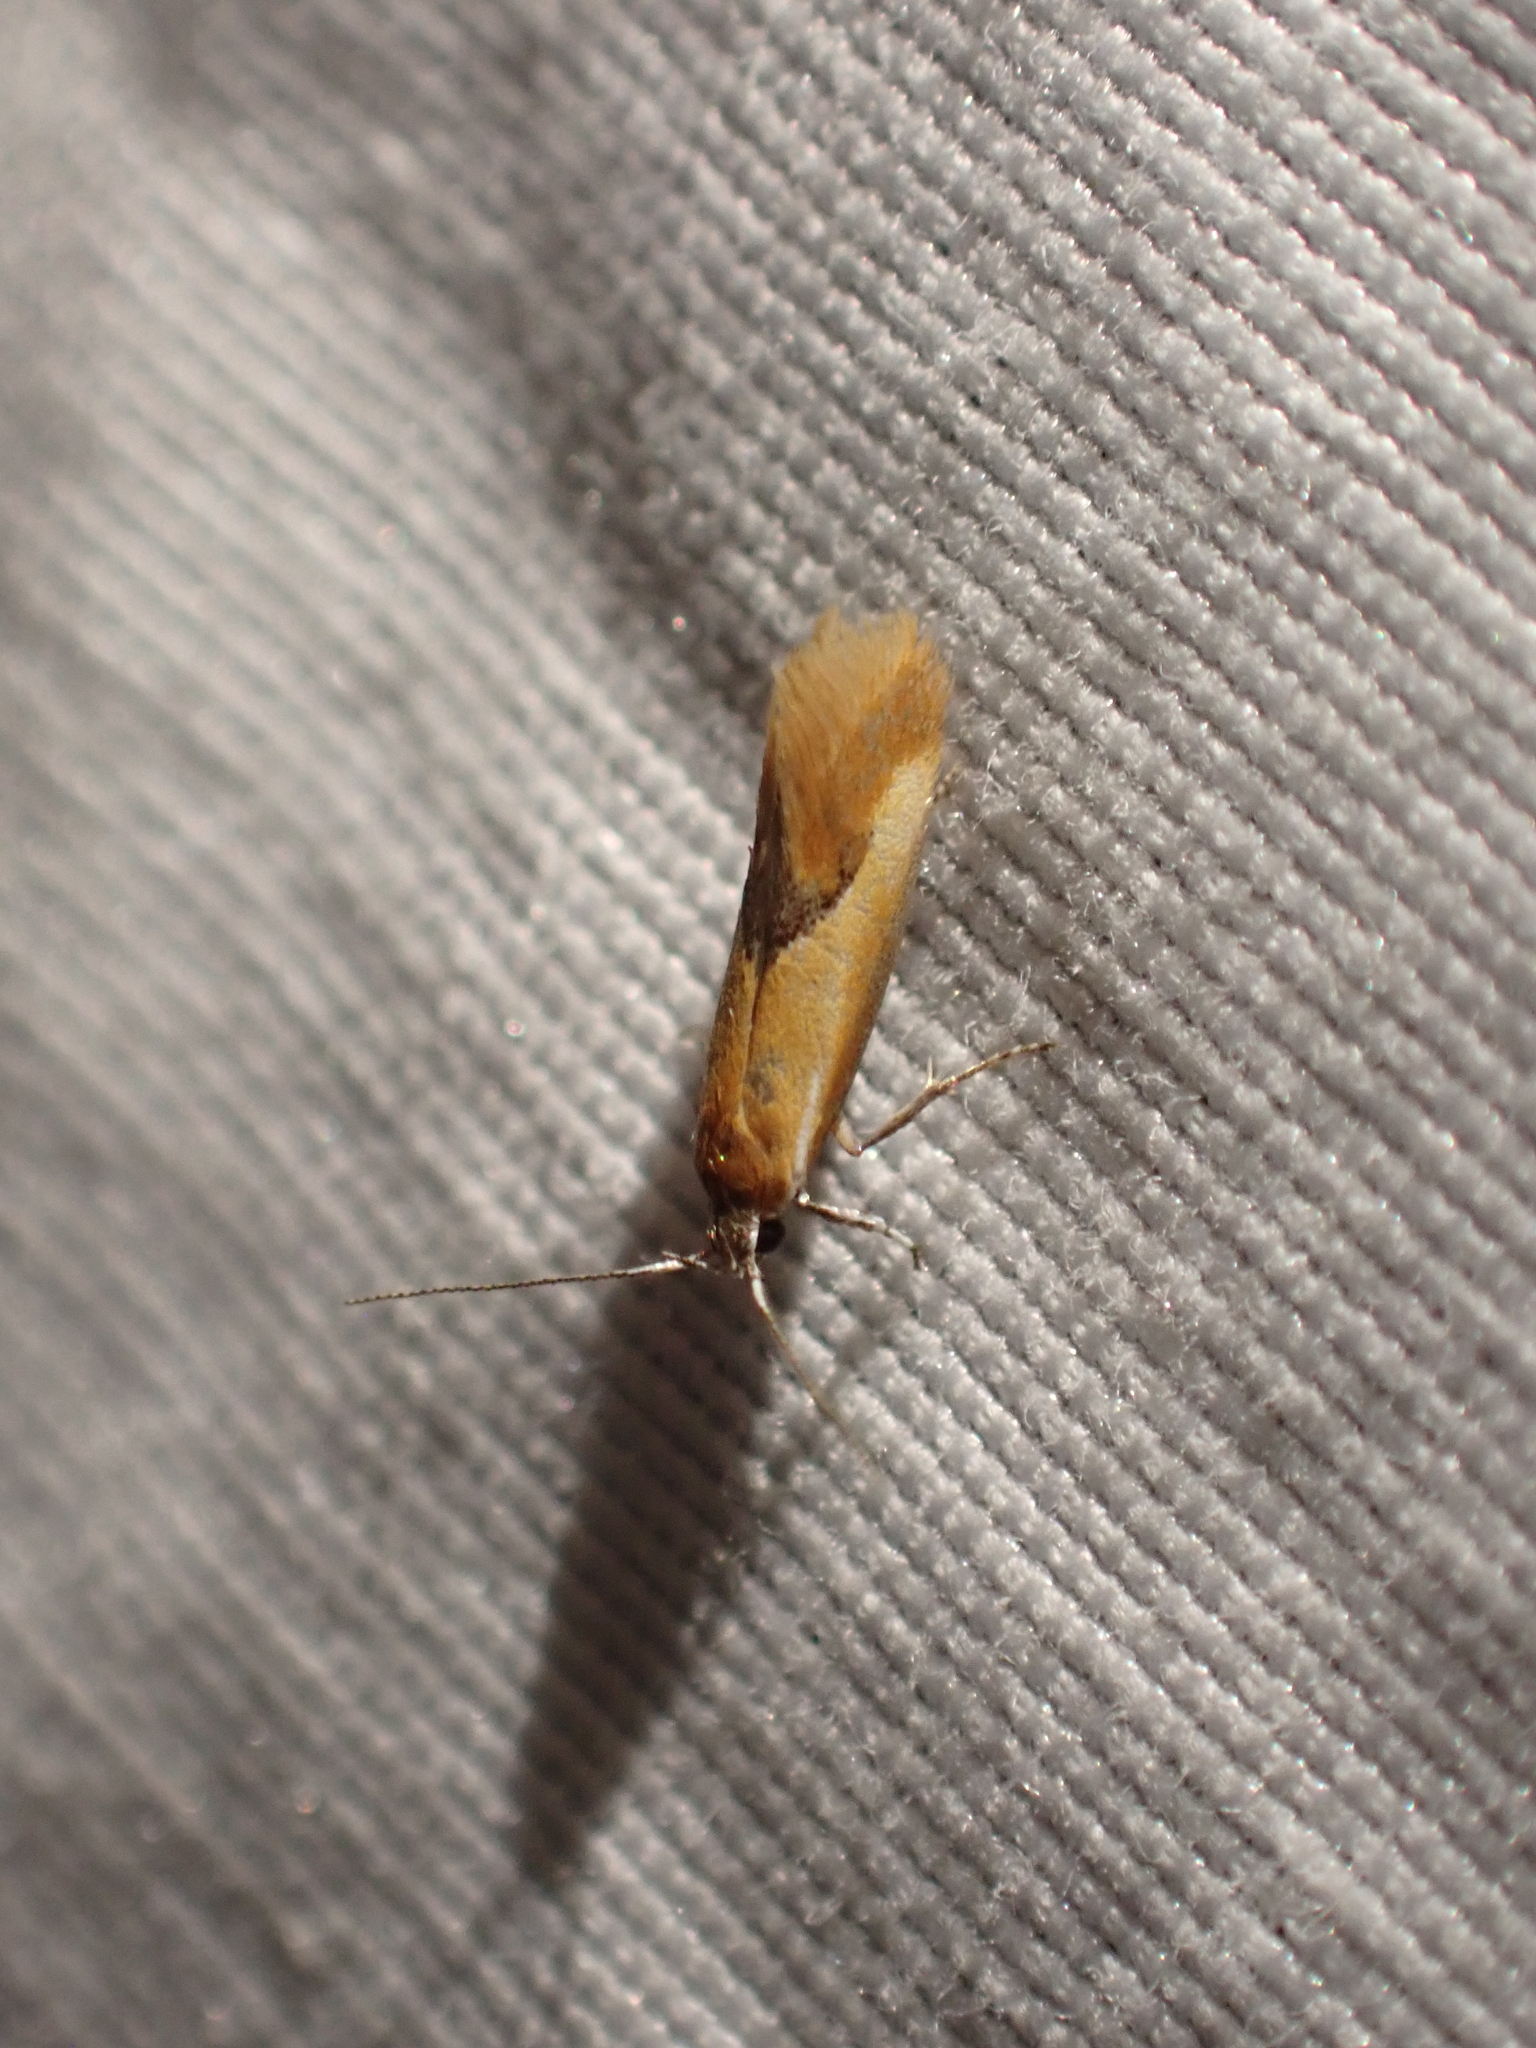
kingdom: Animalia
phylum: Arthropoda
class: Insecta
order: Lepidoptera
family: Oecophoridae
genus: Batia
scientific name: Batia lunaris
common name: Moth
